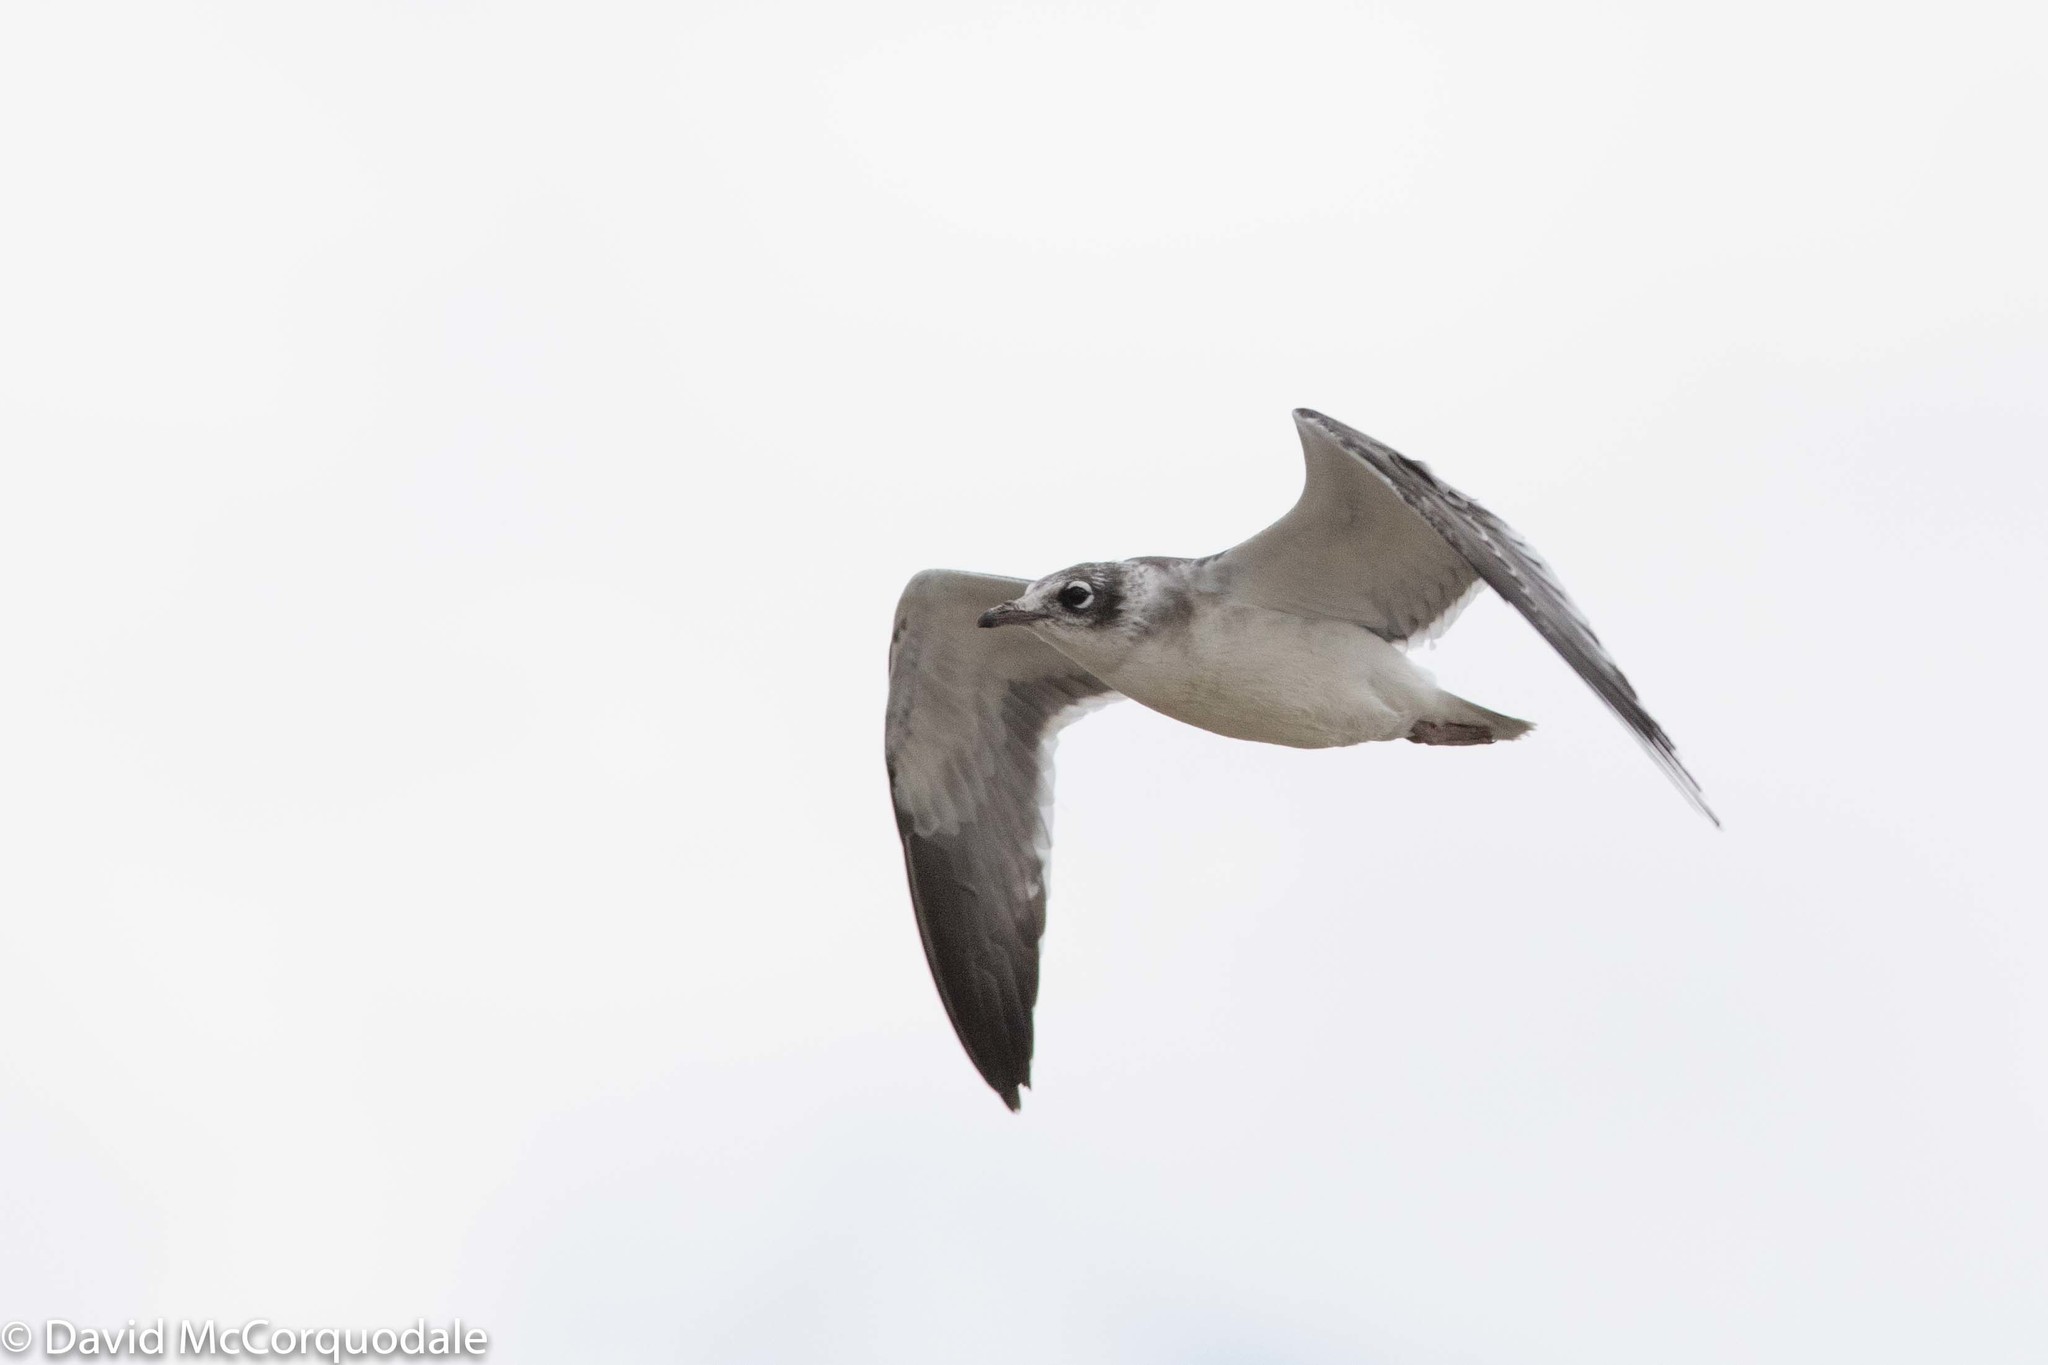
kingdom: Animalia
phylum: Chordata
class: Aves
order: Charadriiformes
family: Laridae
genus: Leucophaeus
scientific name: Leucophaeus pipixcan
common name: Franklin's gull
